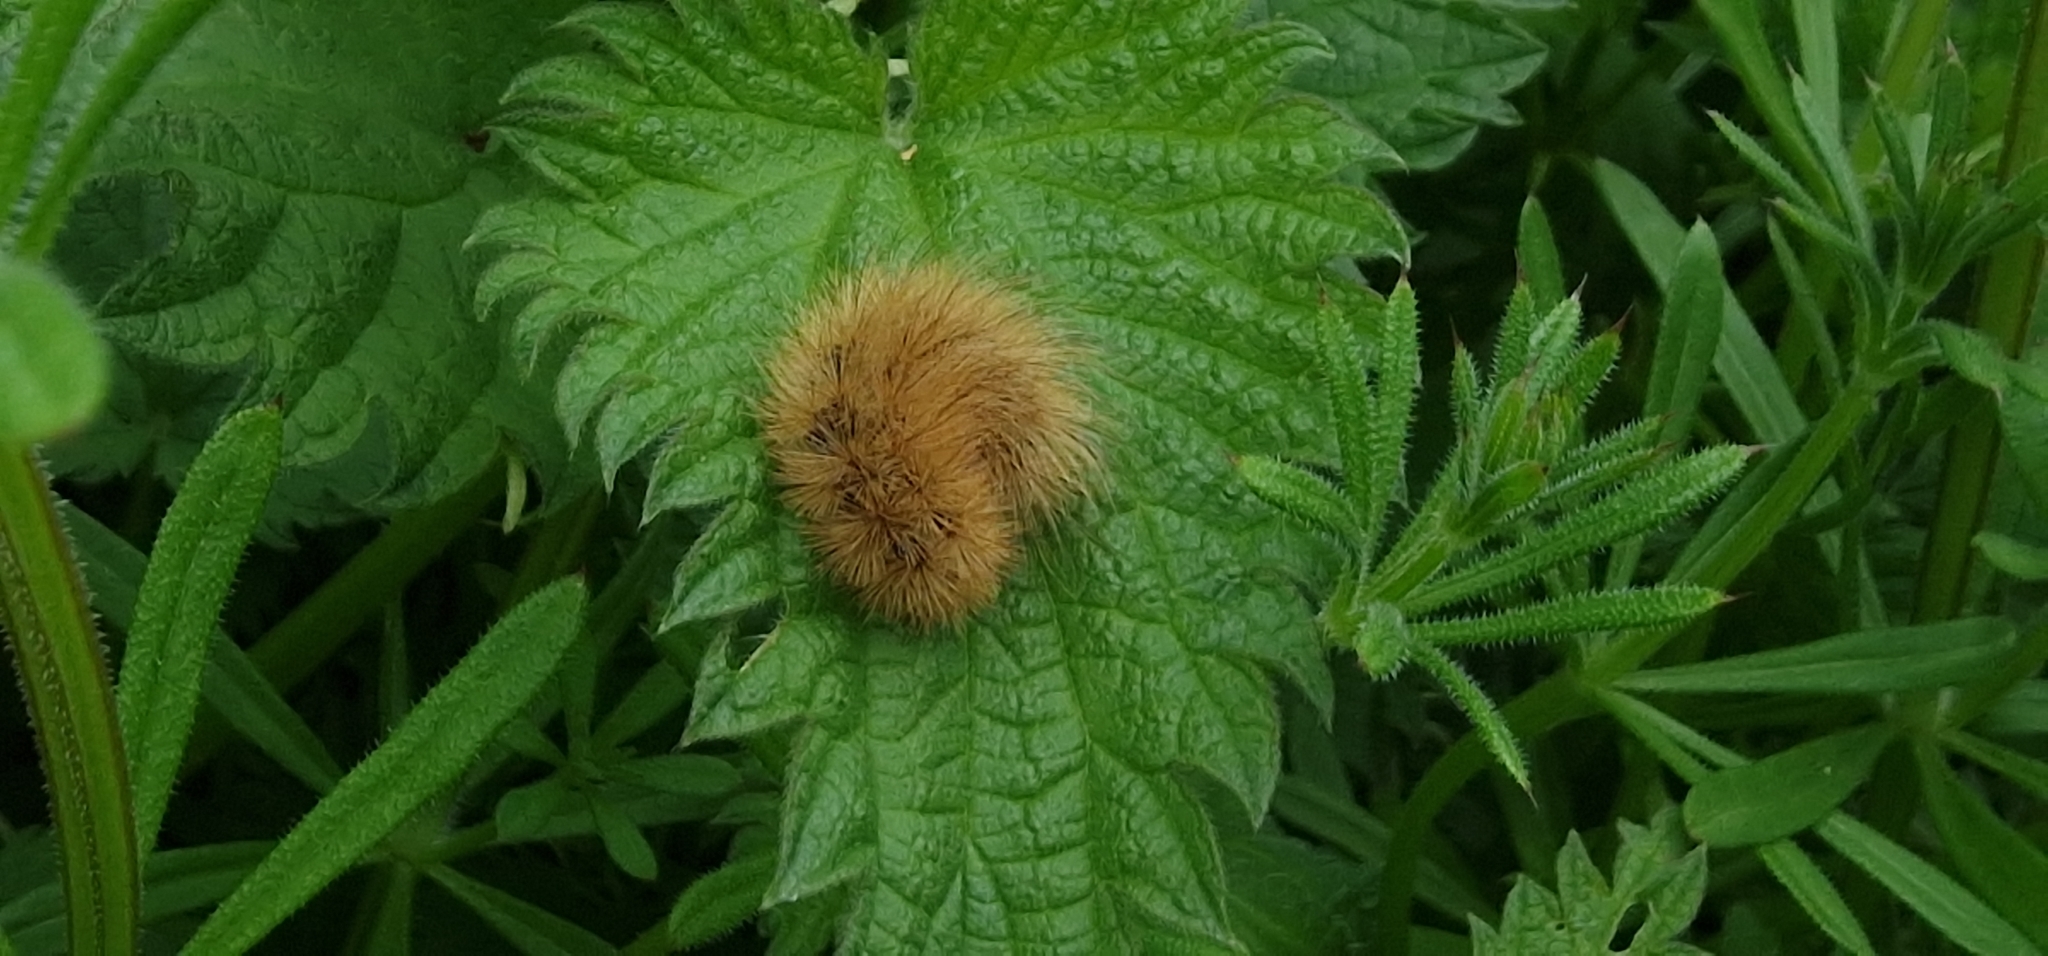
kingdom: Animalia
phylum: Arthropoda
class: Insecta
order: Lepidoptera
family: Erebidae
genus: Phragmatobia
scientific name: Phragmatobia fuliginosa
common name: Ruby tiger
